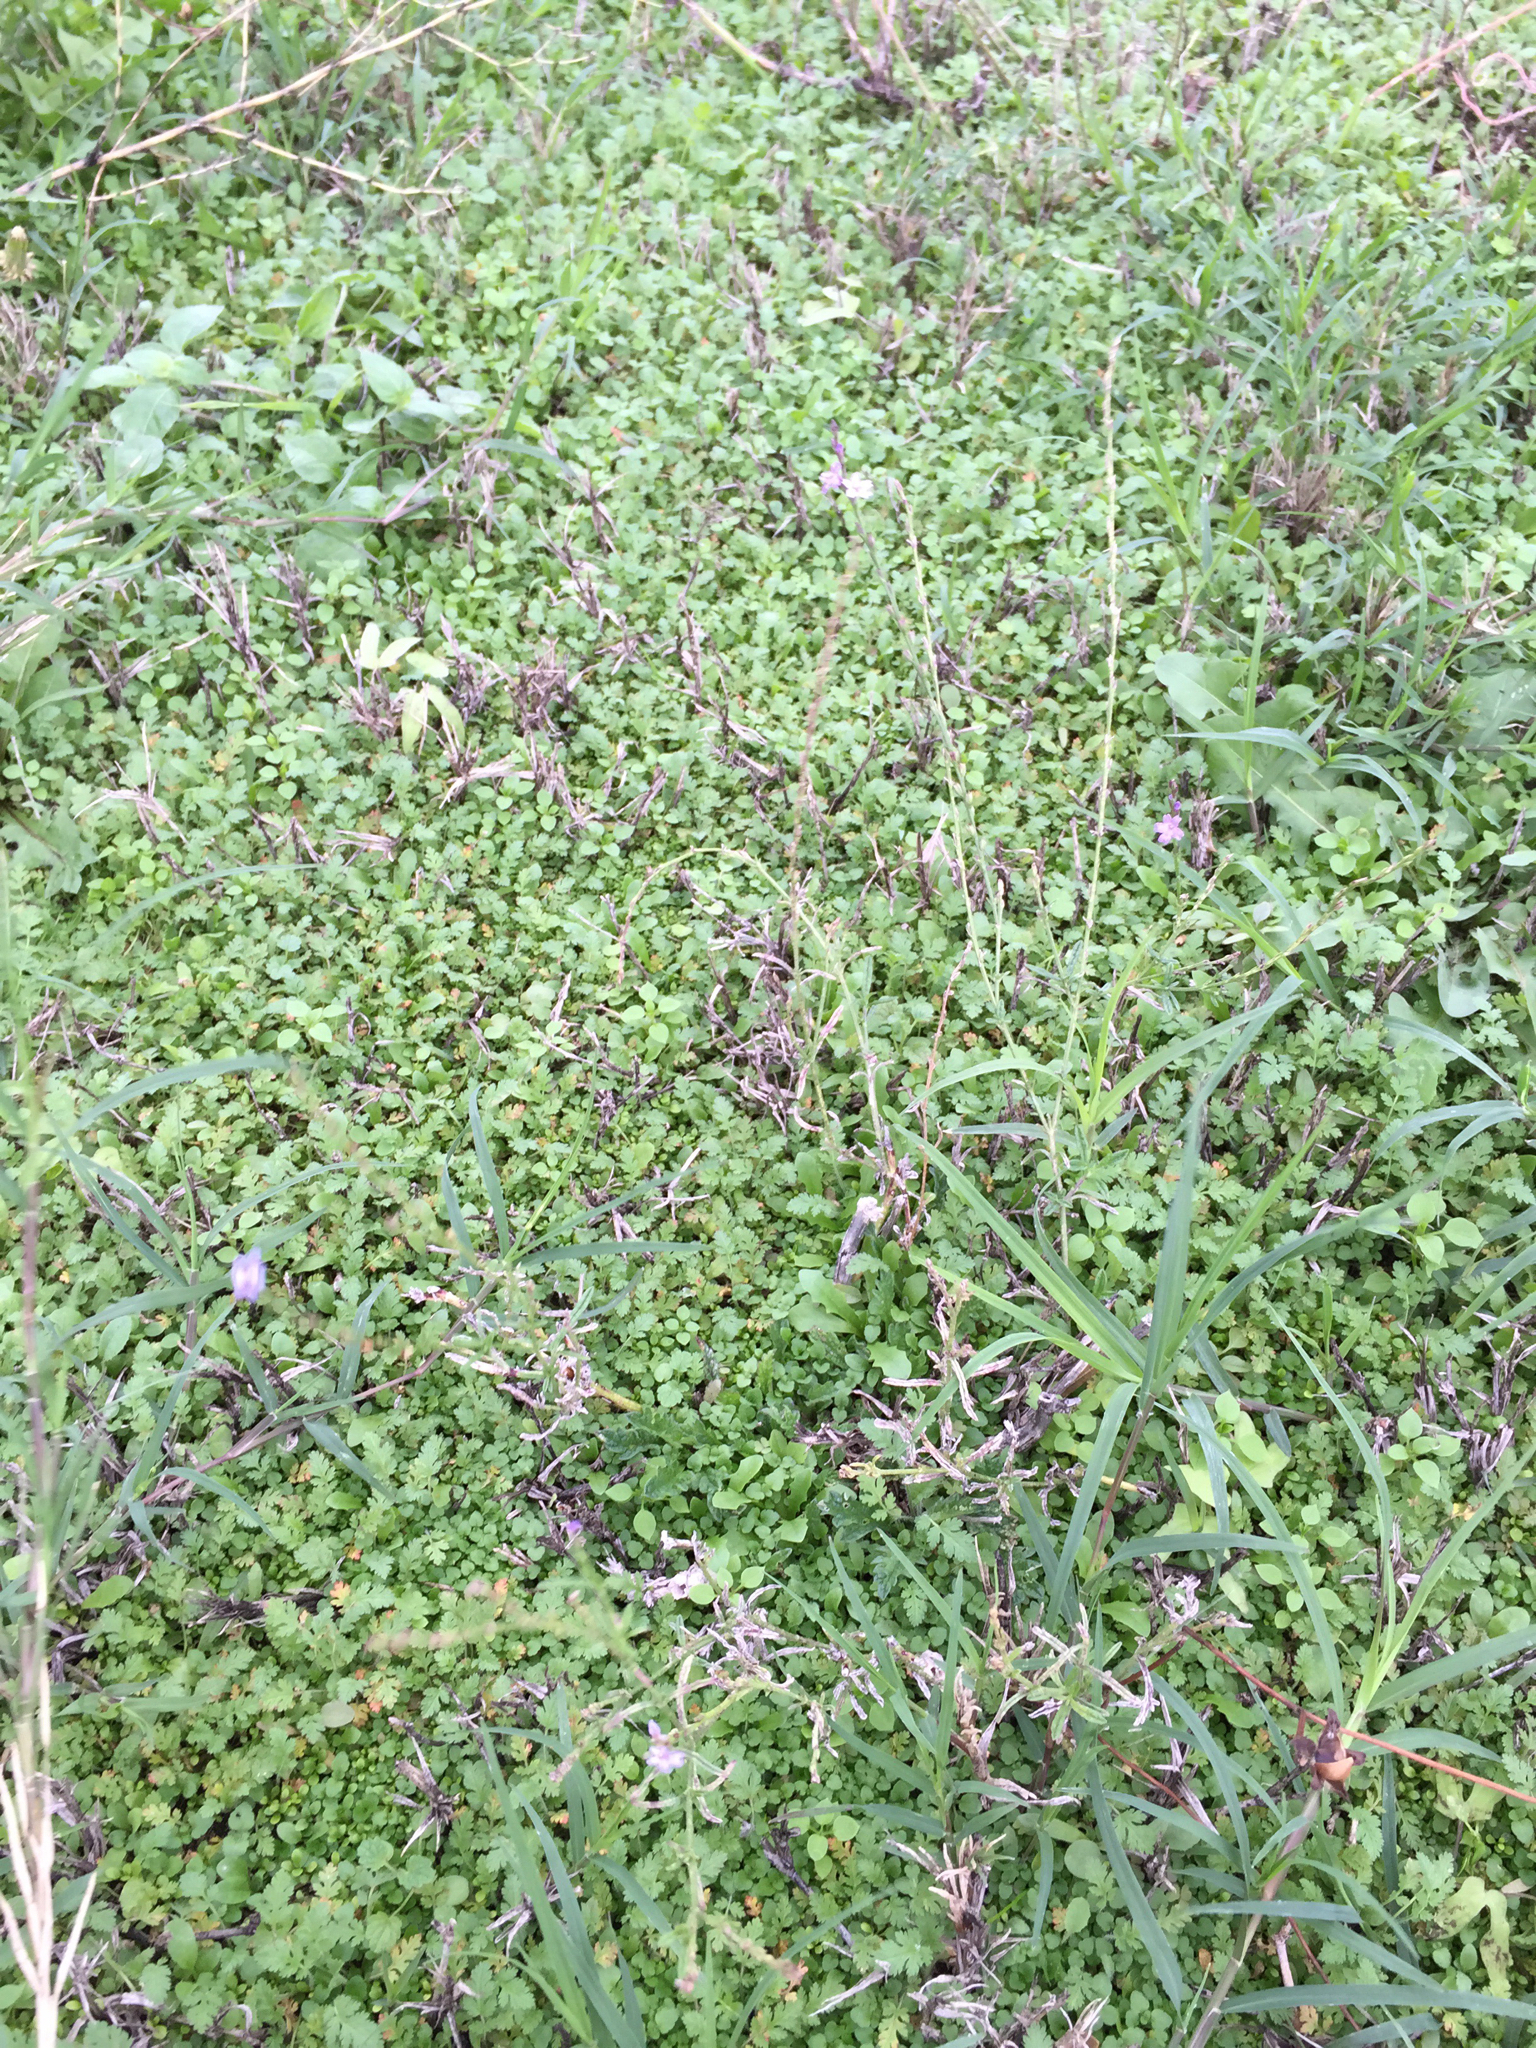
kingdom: Plantae
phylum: Tracheophyta
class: Magnoliopsida
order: Lamiales
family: Verbenaceae
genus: Verbena
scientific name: Verbena halei
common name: Texas vervain
